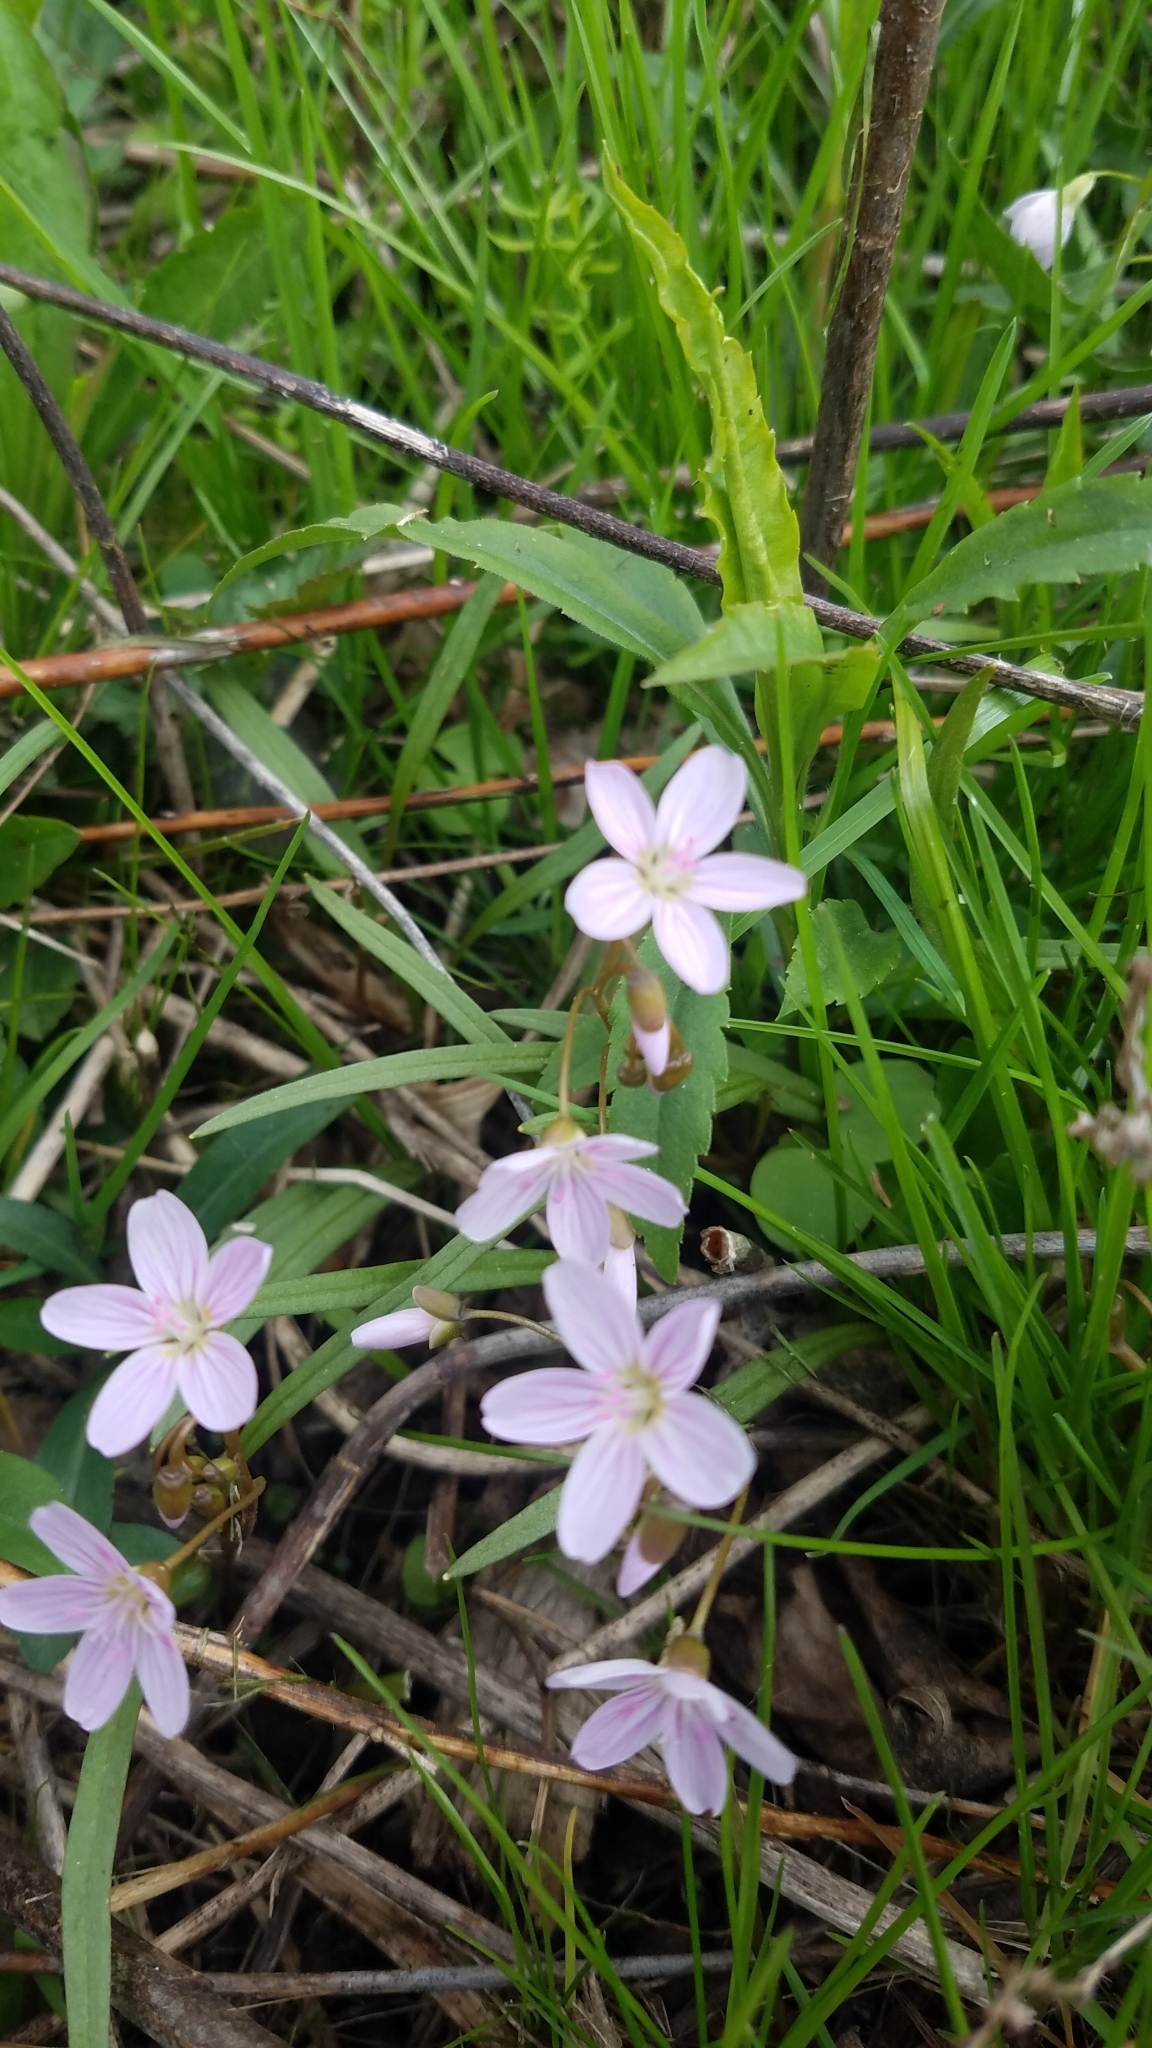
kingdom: Plantae
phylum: Tracheophyta
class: Magnoliopsida
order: Caryophyllales
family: Montiaceae
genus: Claytonia
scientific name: Claytonia virginica
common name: Virginia springbeauty
